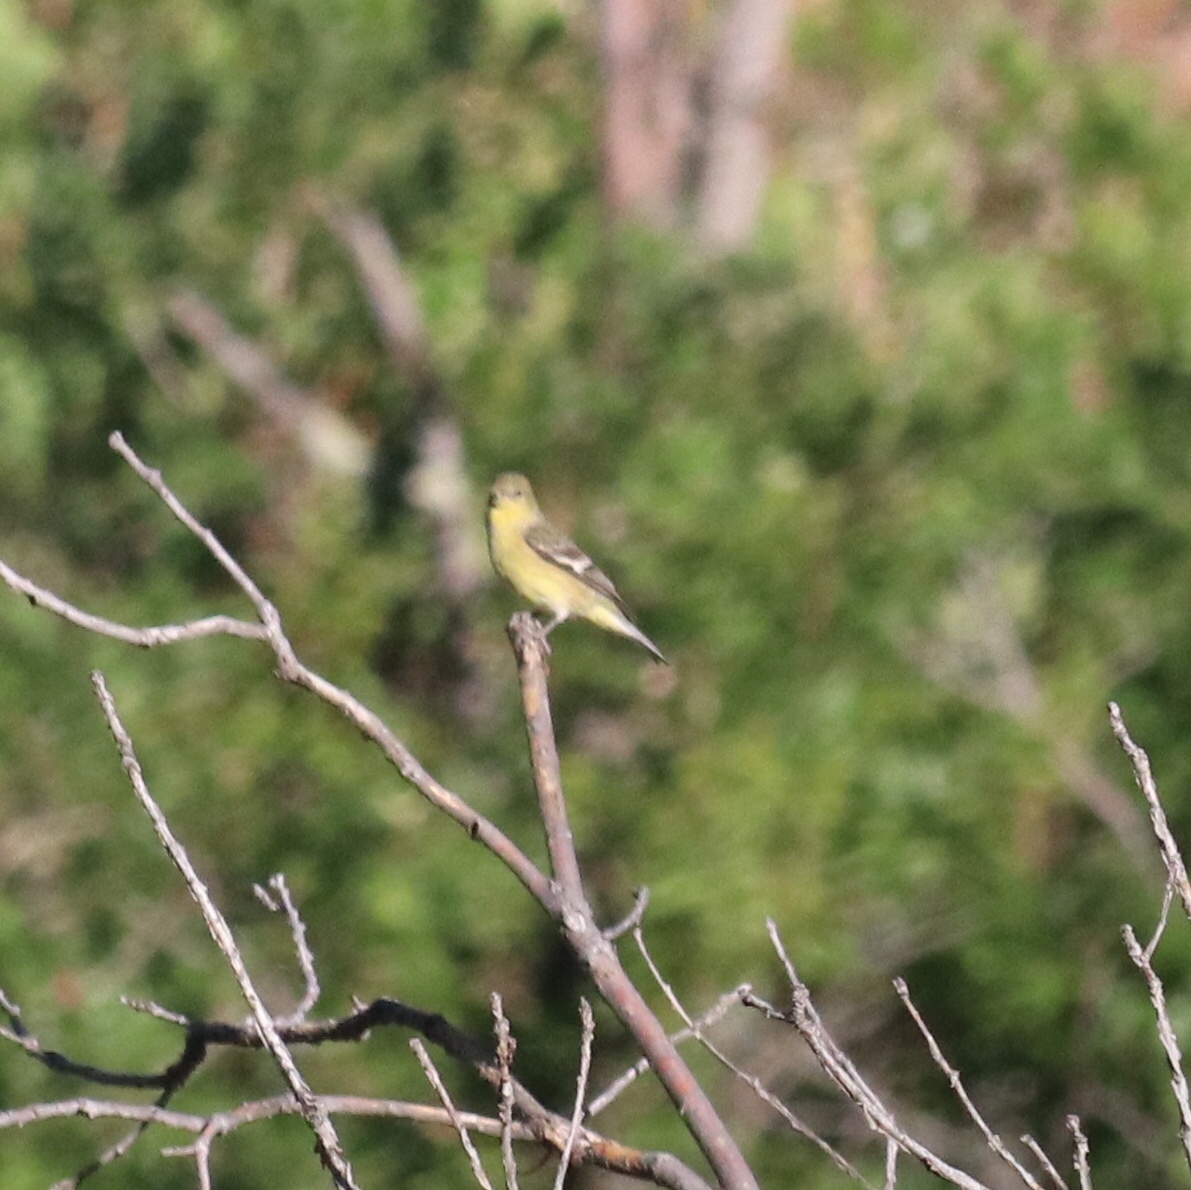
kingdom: Animalia
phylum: Chordata
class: Aves
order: Passeriformes
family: Fringillidae
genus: Spinus
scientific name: Spinus psaltria
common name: Lesser goldfinch
